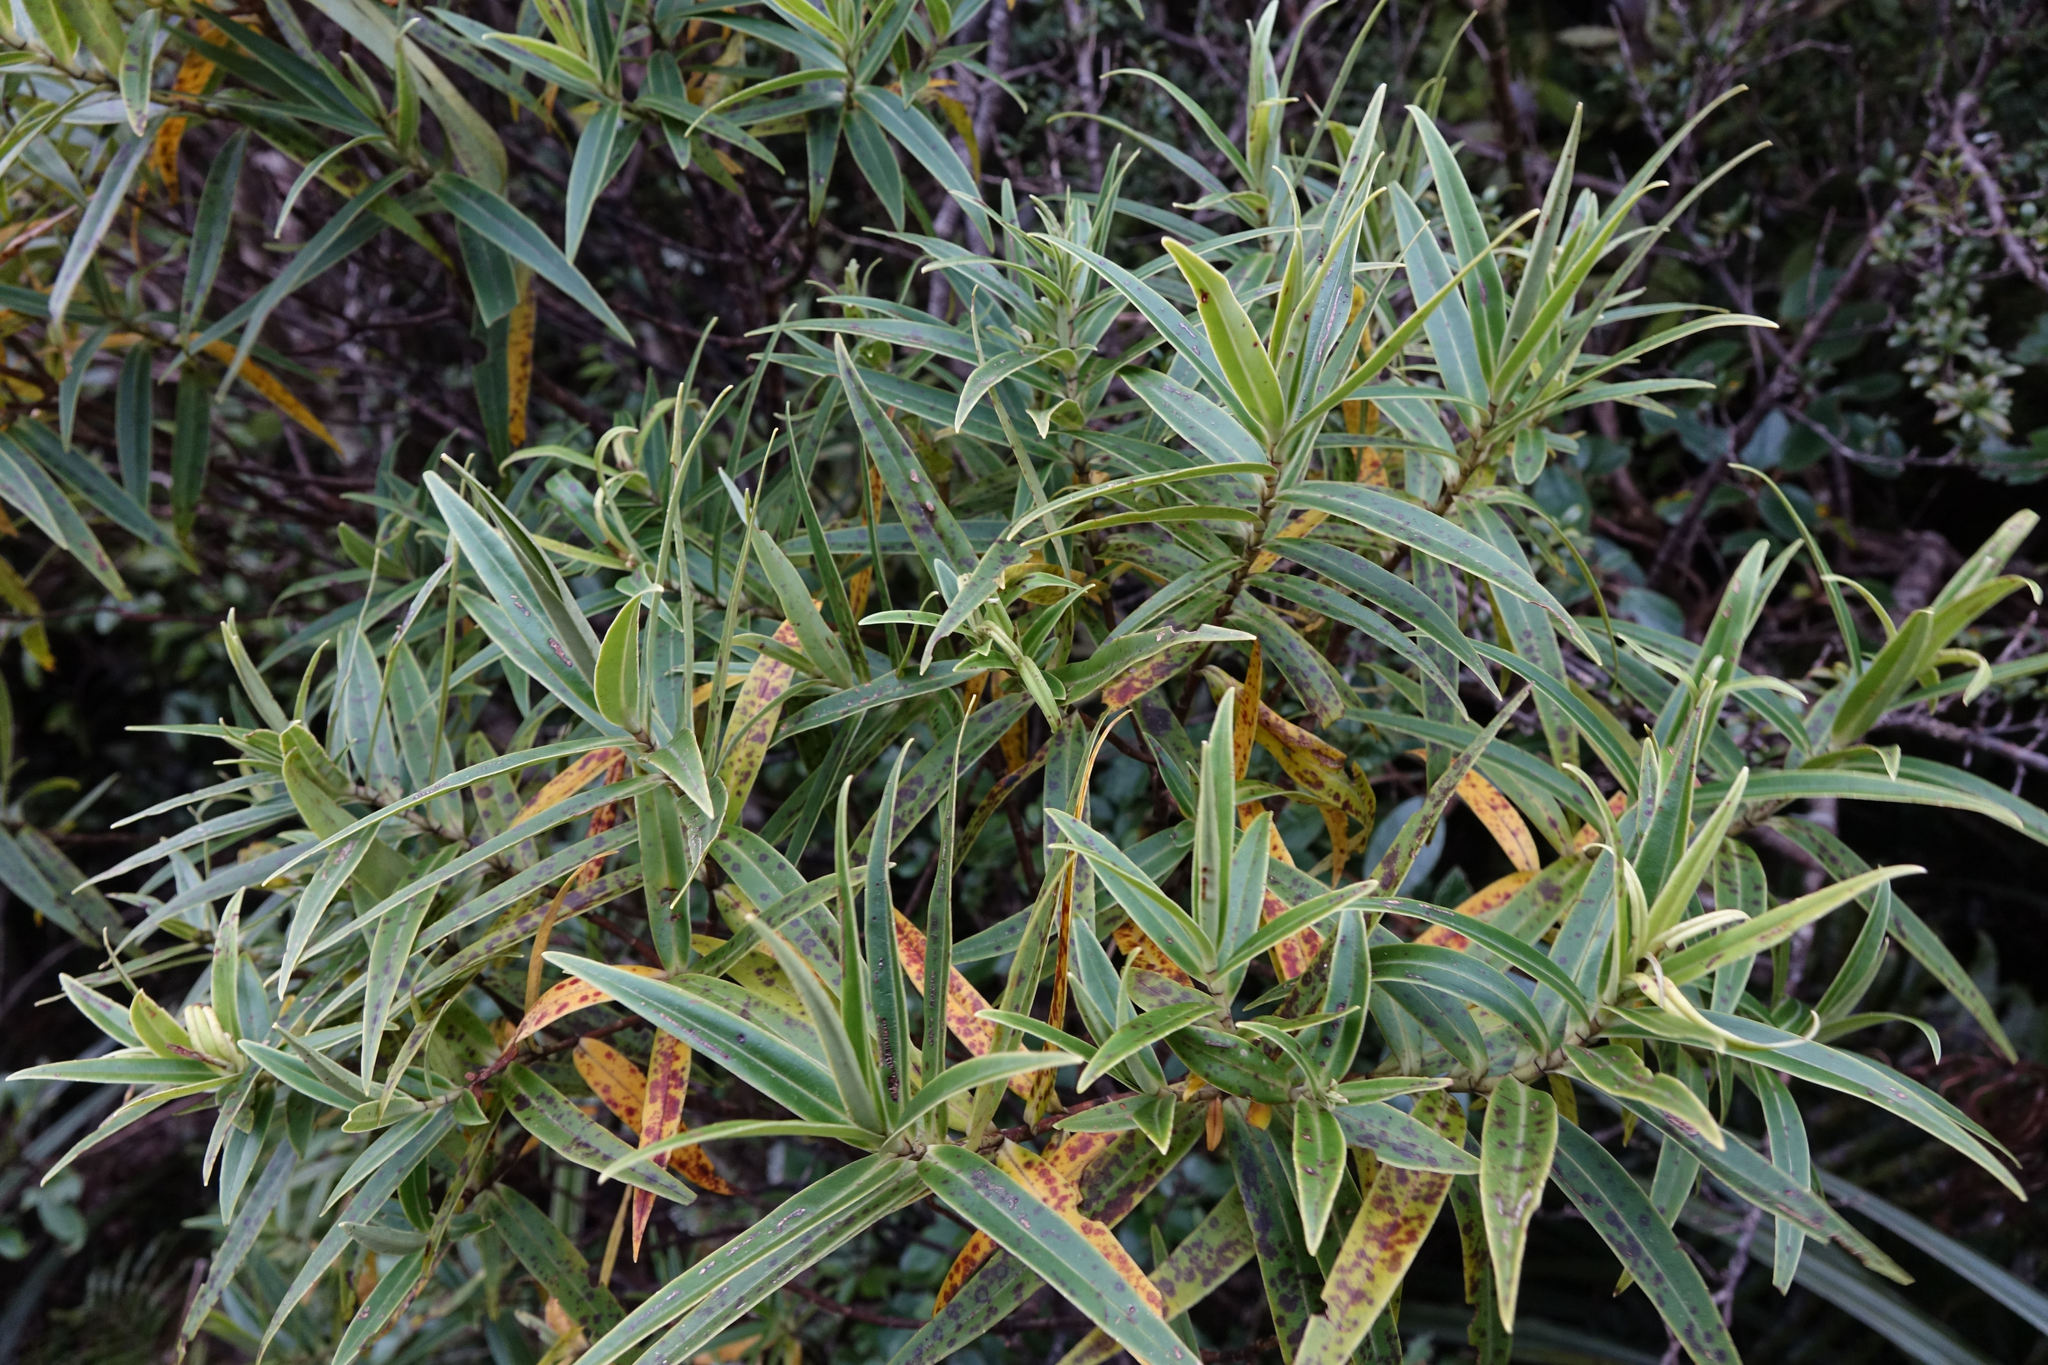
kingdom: Plantae
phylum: Tracheophyta
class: Magnoliopsida
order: Lamiales
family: Plantaginaceae
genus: Veronica
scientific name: Veronica corriganii
